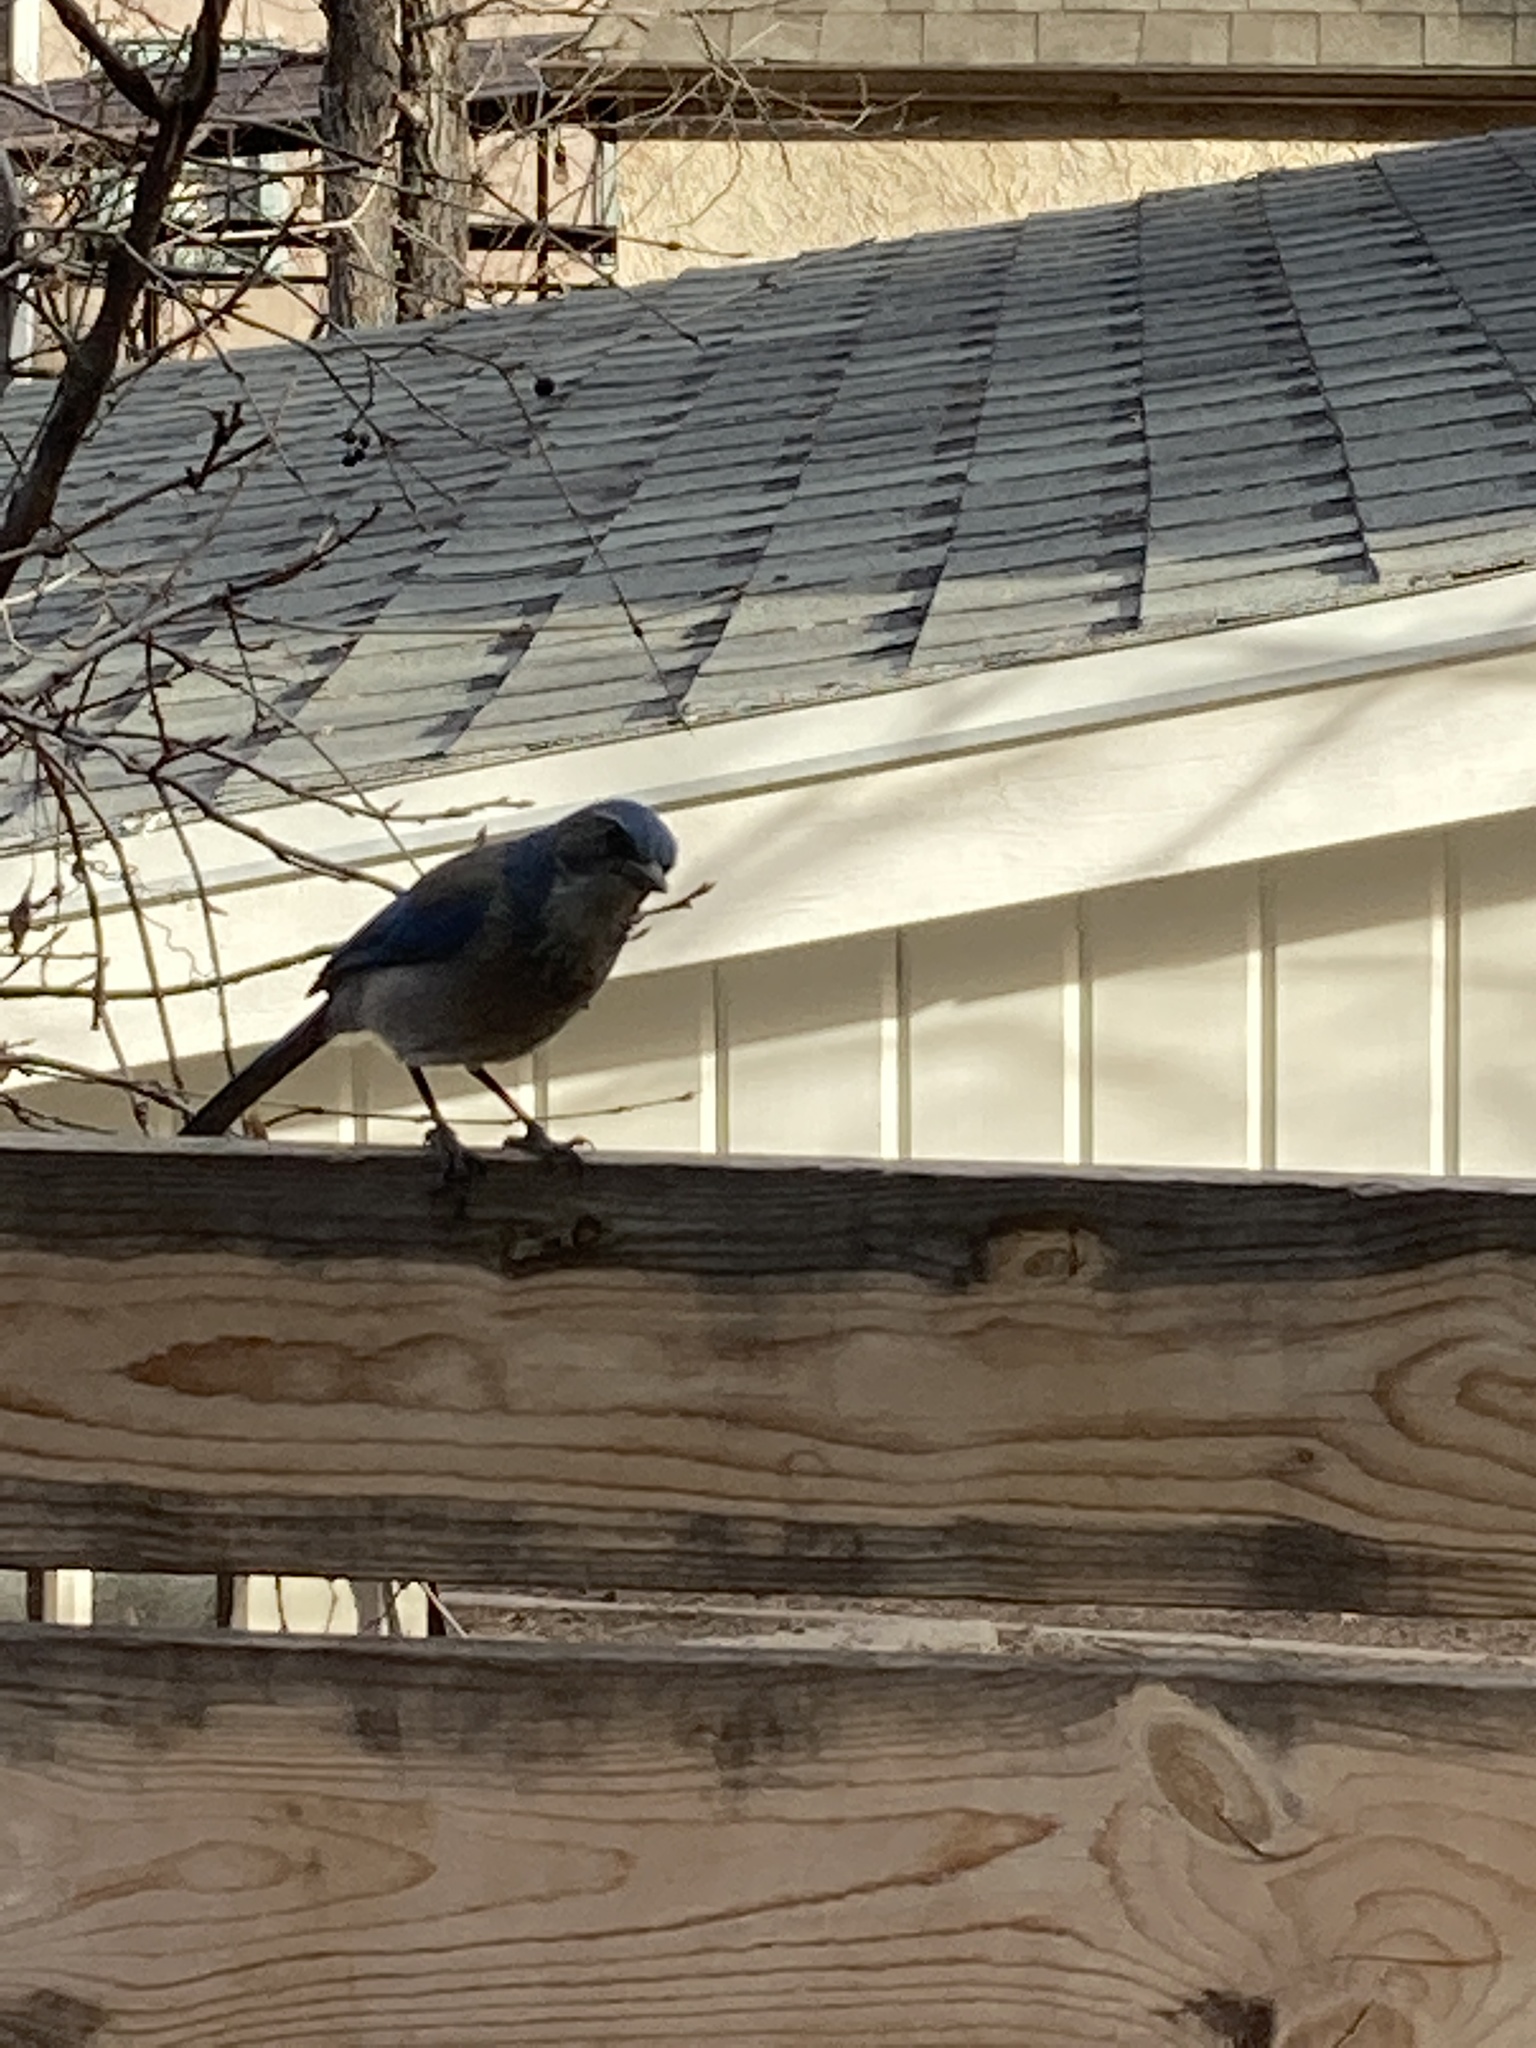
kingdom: Animalia
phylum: Chordata
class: Aves
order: Passeriformes
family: Corvidae
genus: Aphelocoma
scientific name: Aphelocoma woodhouseii
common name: Woodhouse's scrub-jay
